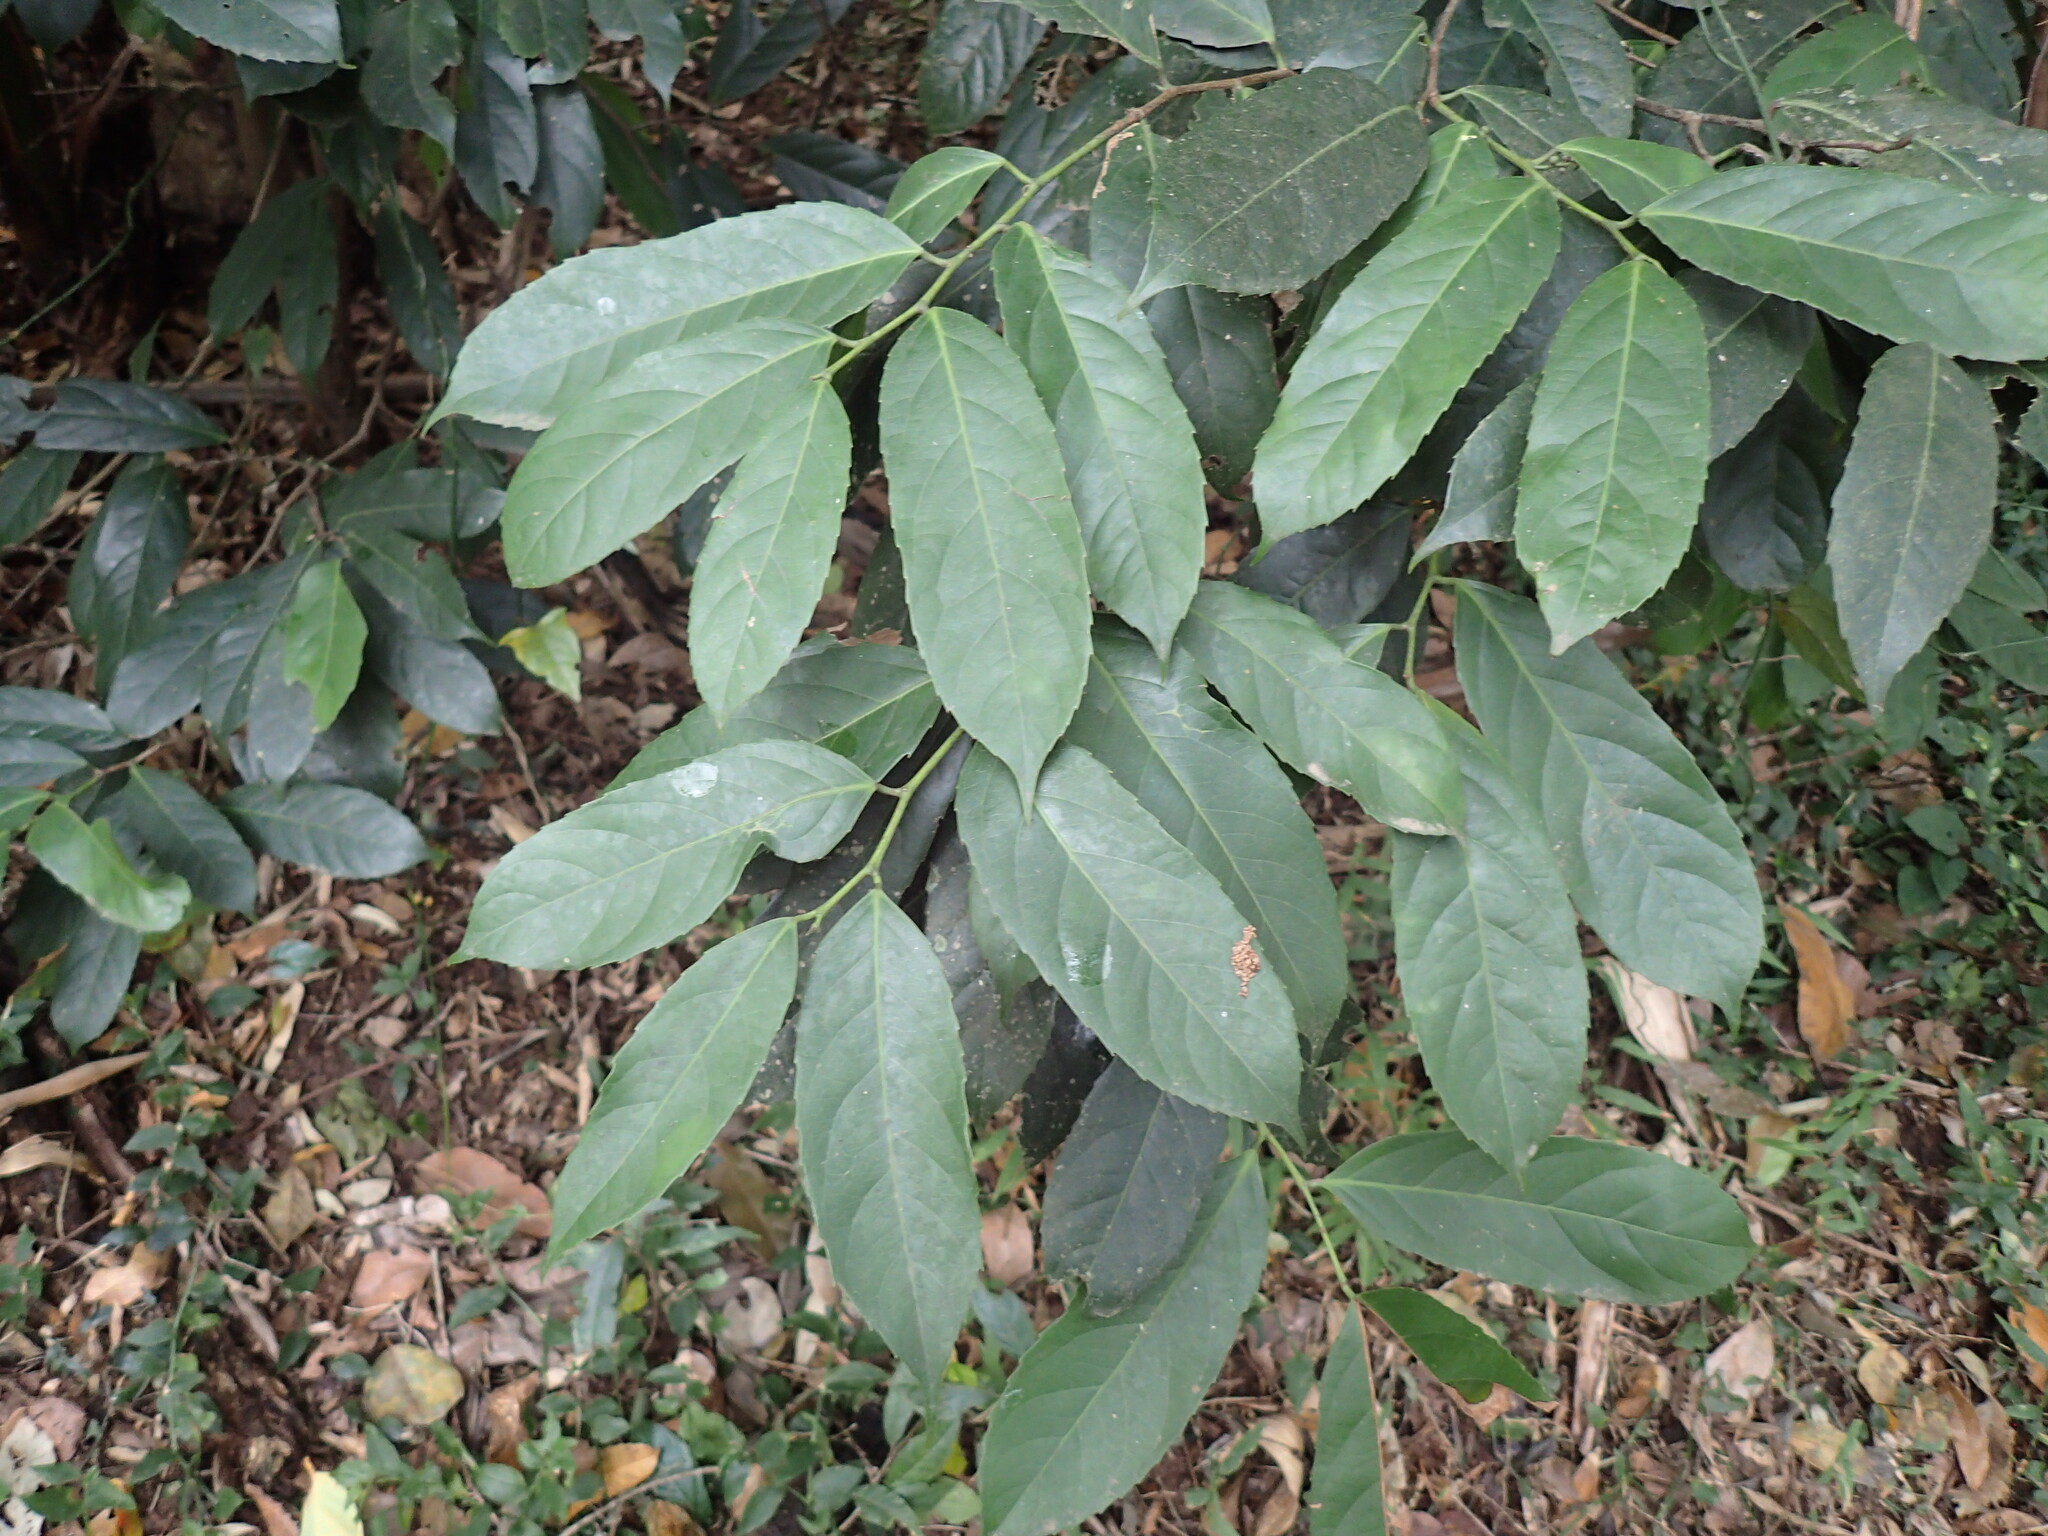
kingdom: Plantae
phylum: Tracheophyta
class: Magnoliopsida
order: Malpighiales
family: Achariaceae
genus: Rawsonia
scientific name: Rawsonia lucida
